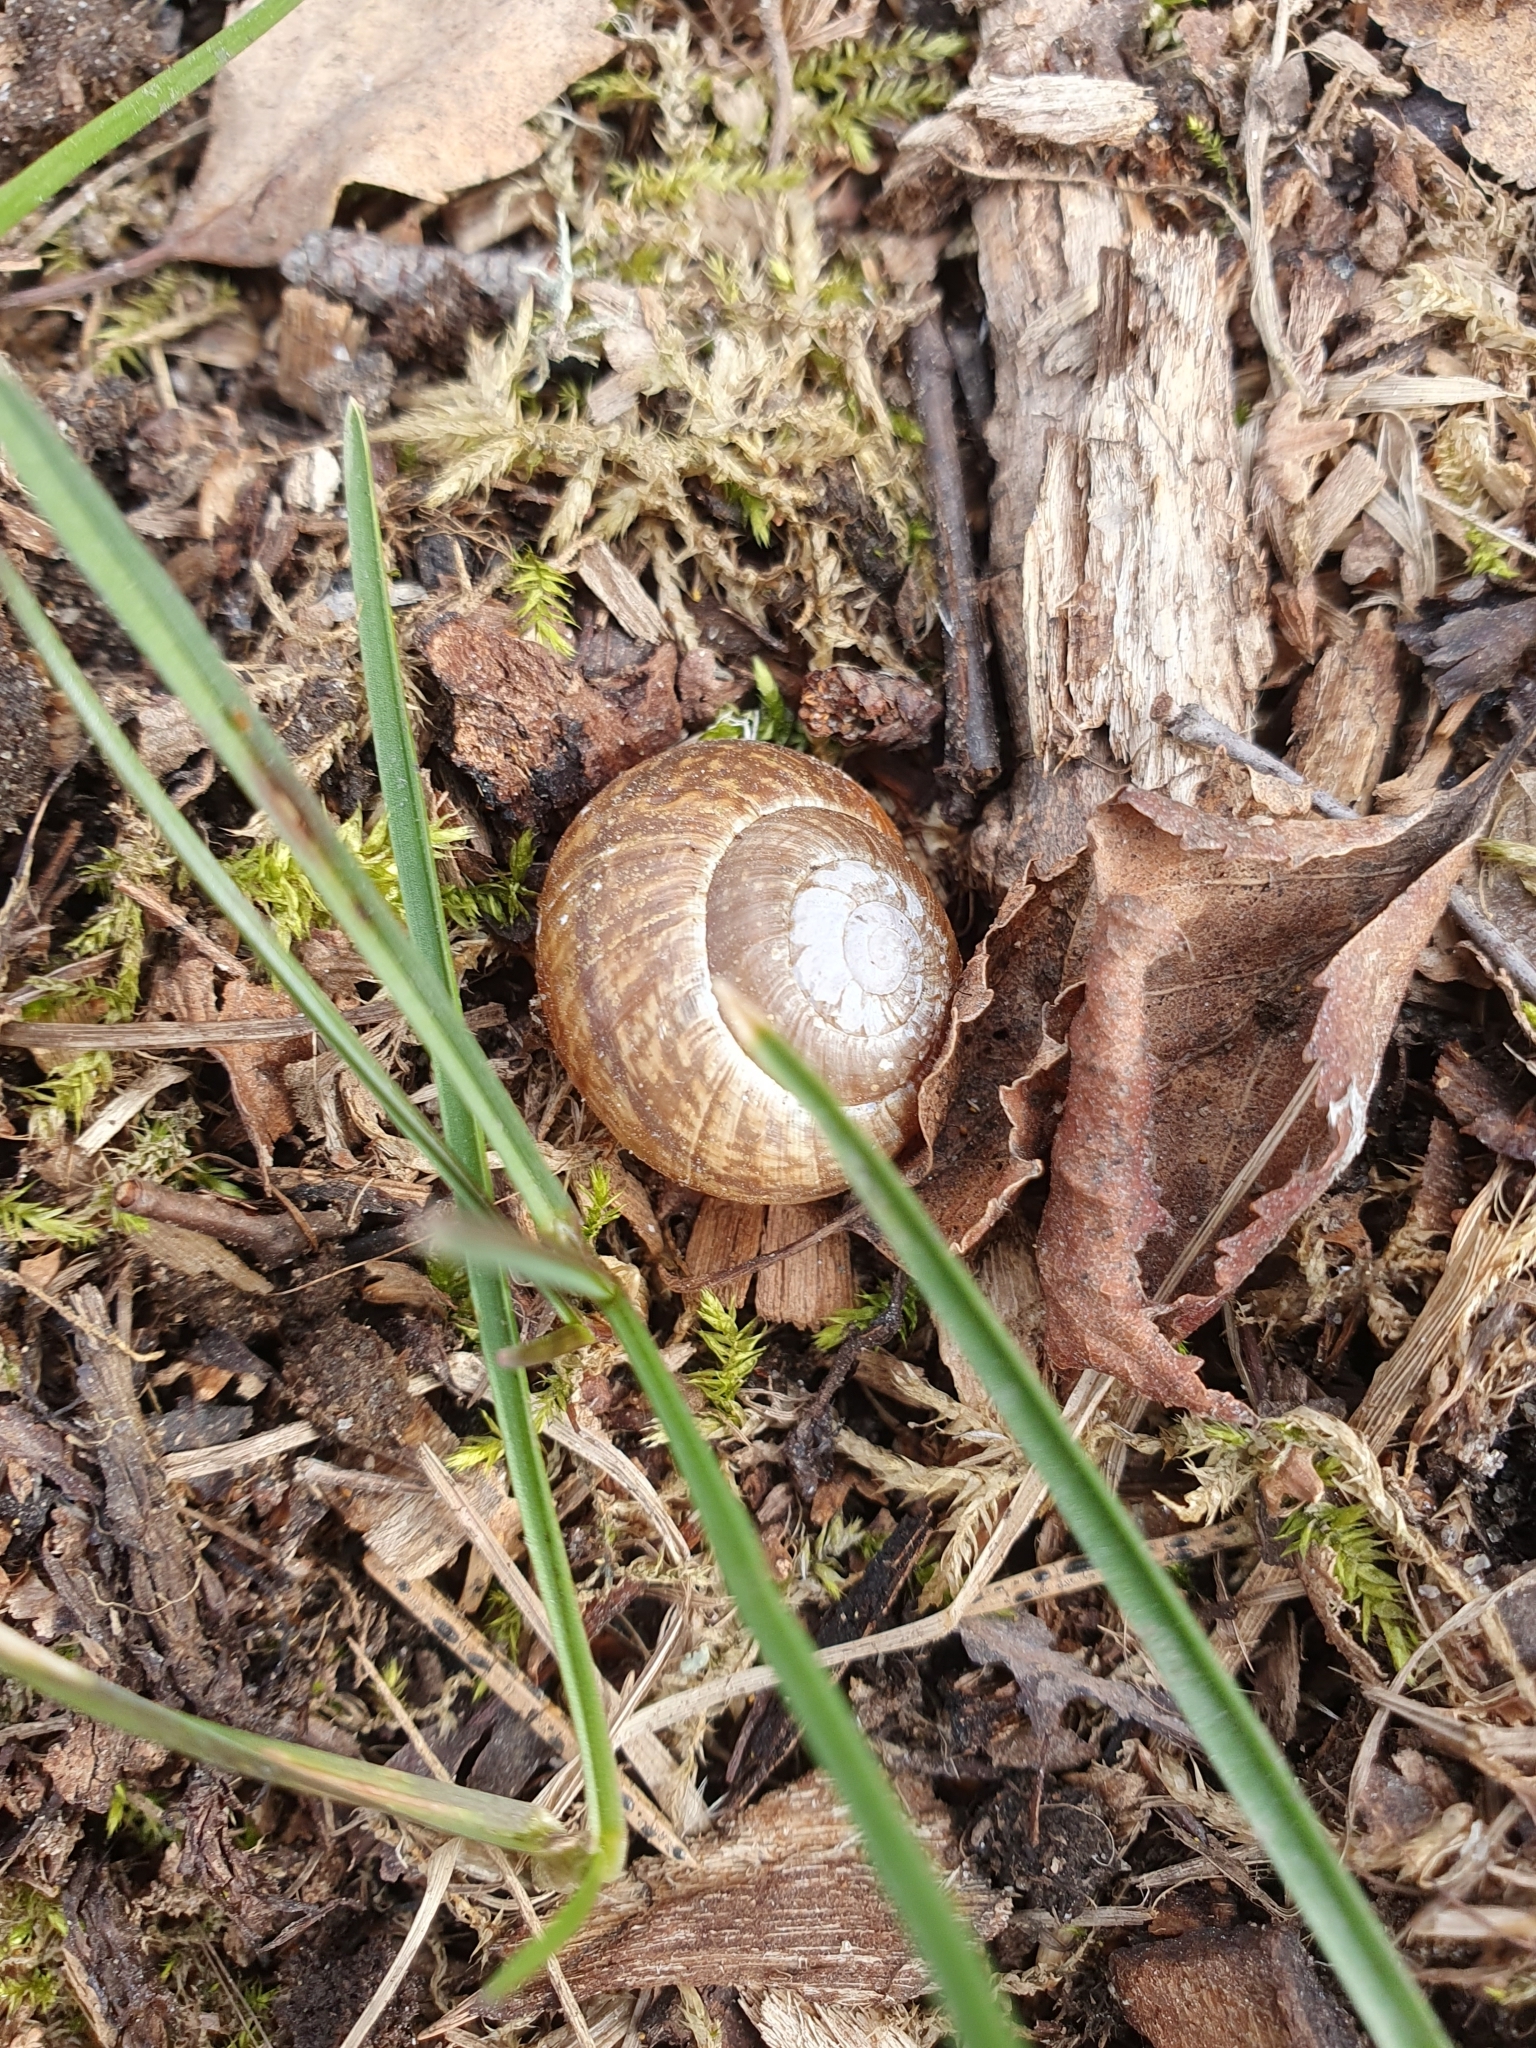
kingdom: Animalia
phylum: Mollusca
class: Gastropoda
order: Stylommatophora
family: Helicidae
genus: Arianta
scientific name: Arianta arbustorum
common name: Copse snail
